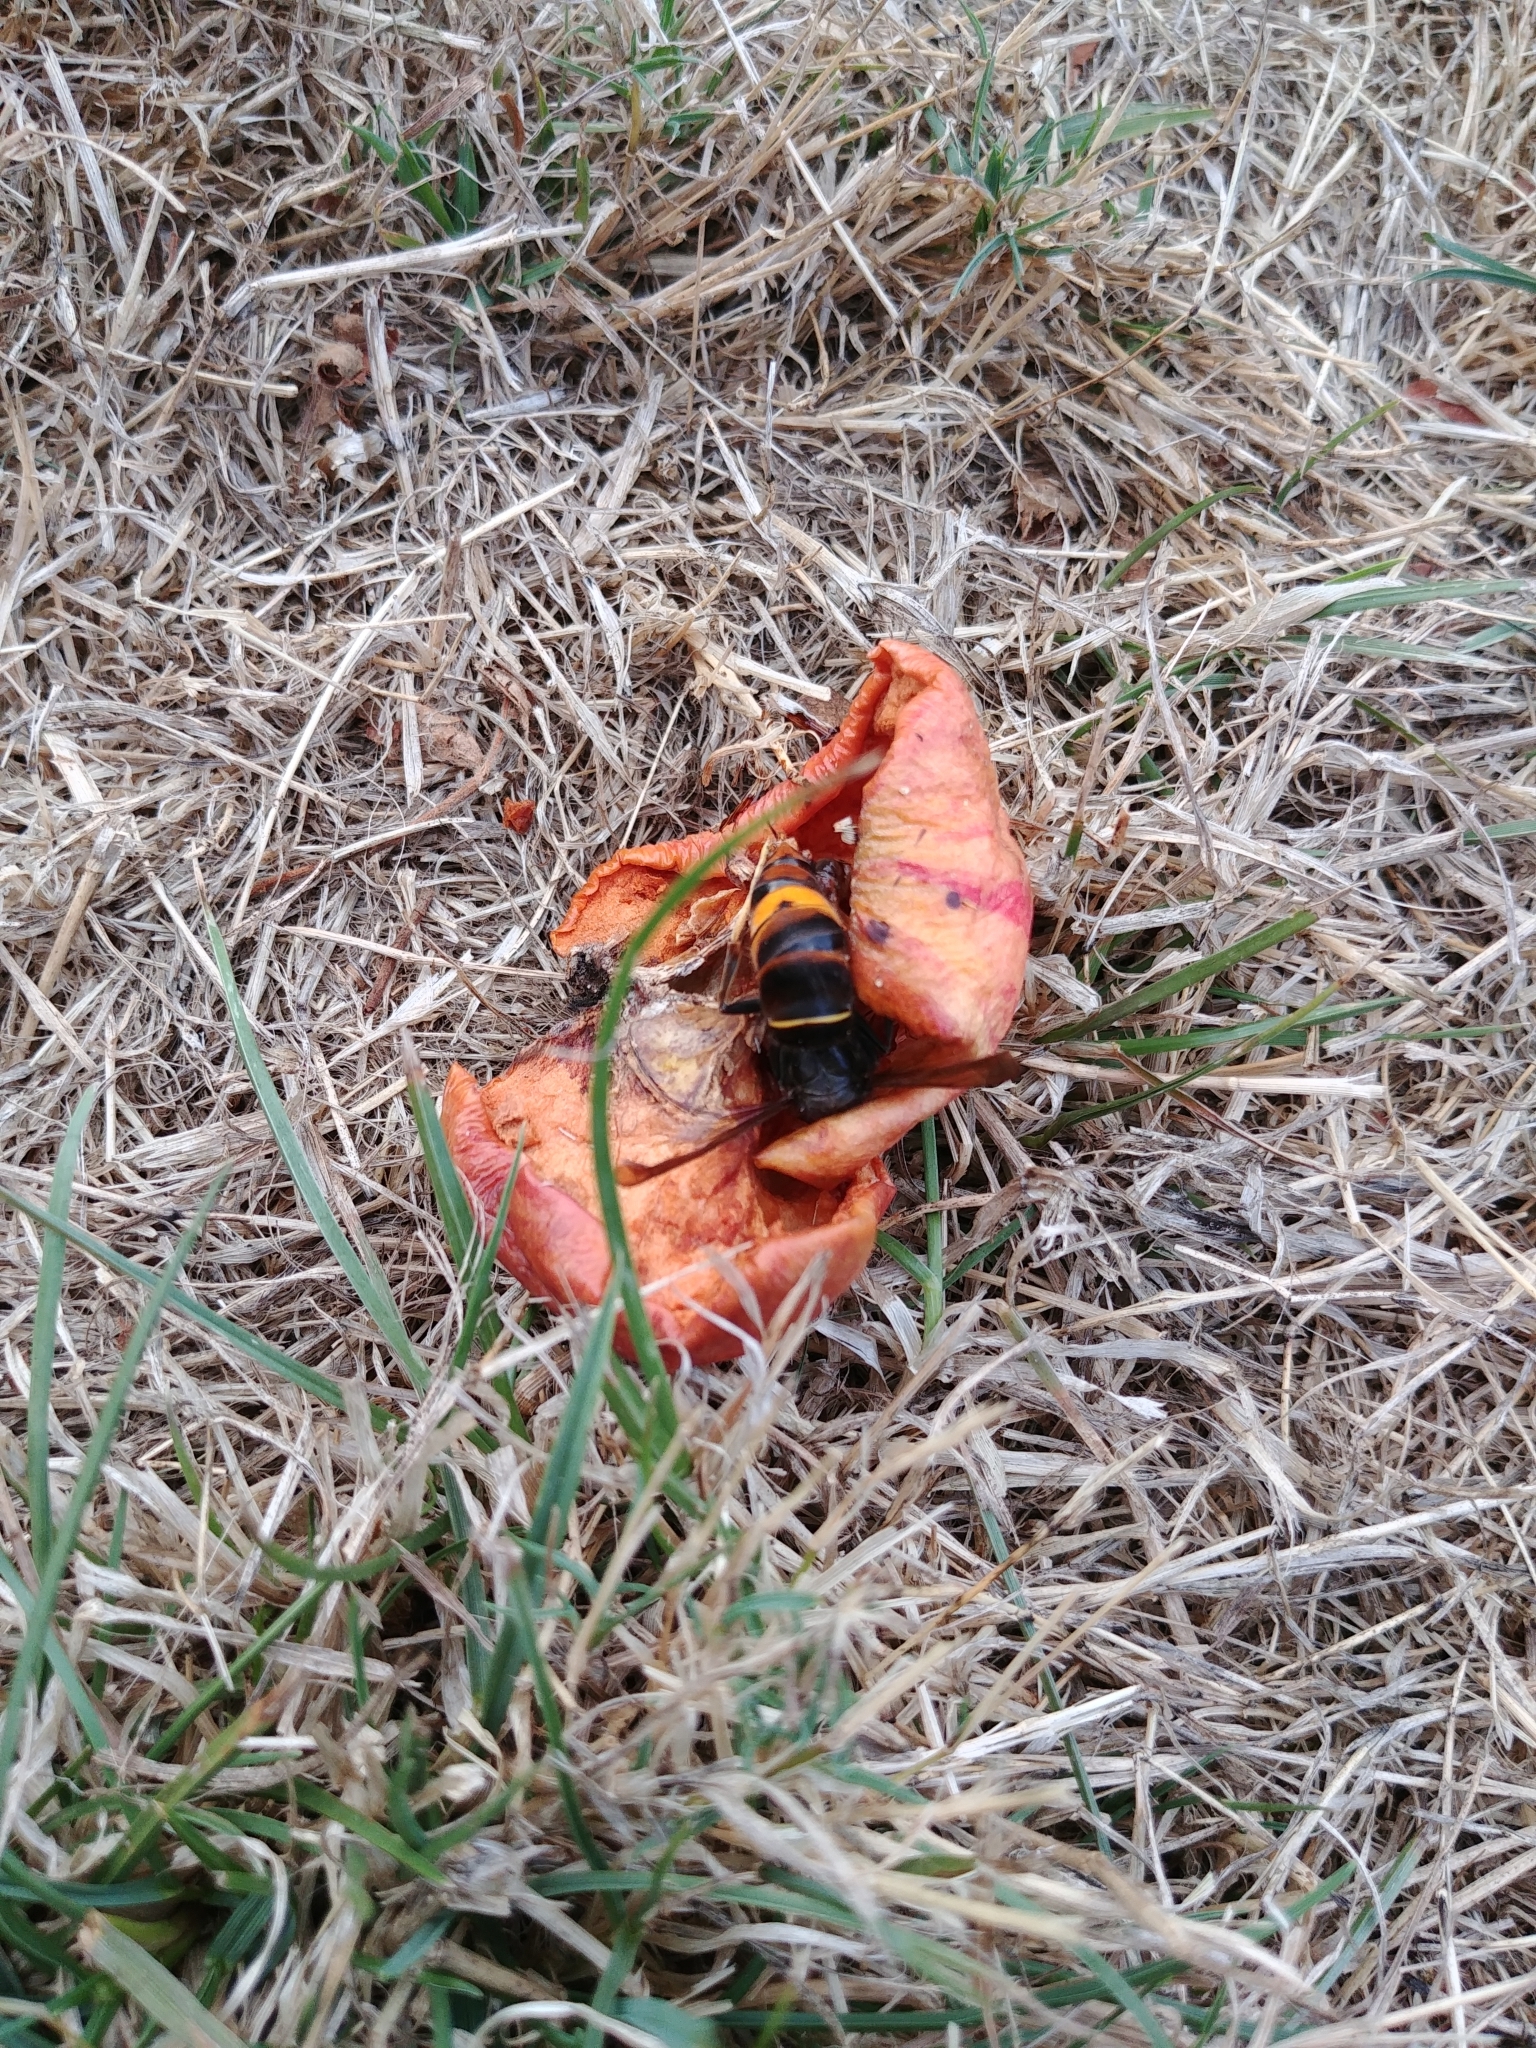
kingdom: Animalia
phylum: Arthropoda
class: Insecta
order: Hymenoptera
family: Vespidae
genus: Vespa
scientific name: Vespa velutina
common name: Asian hornet
